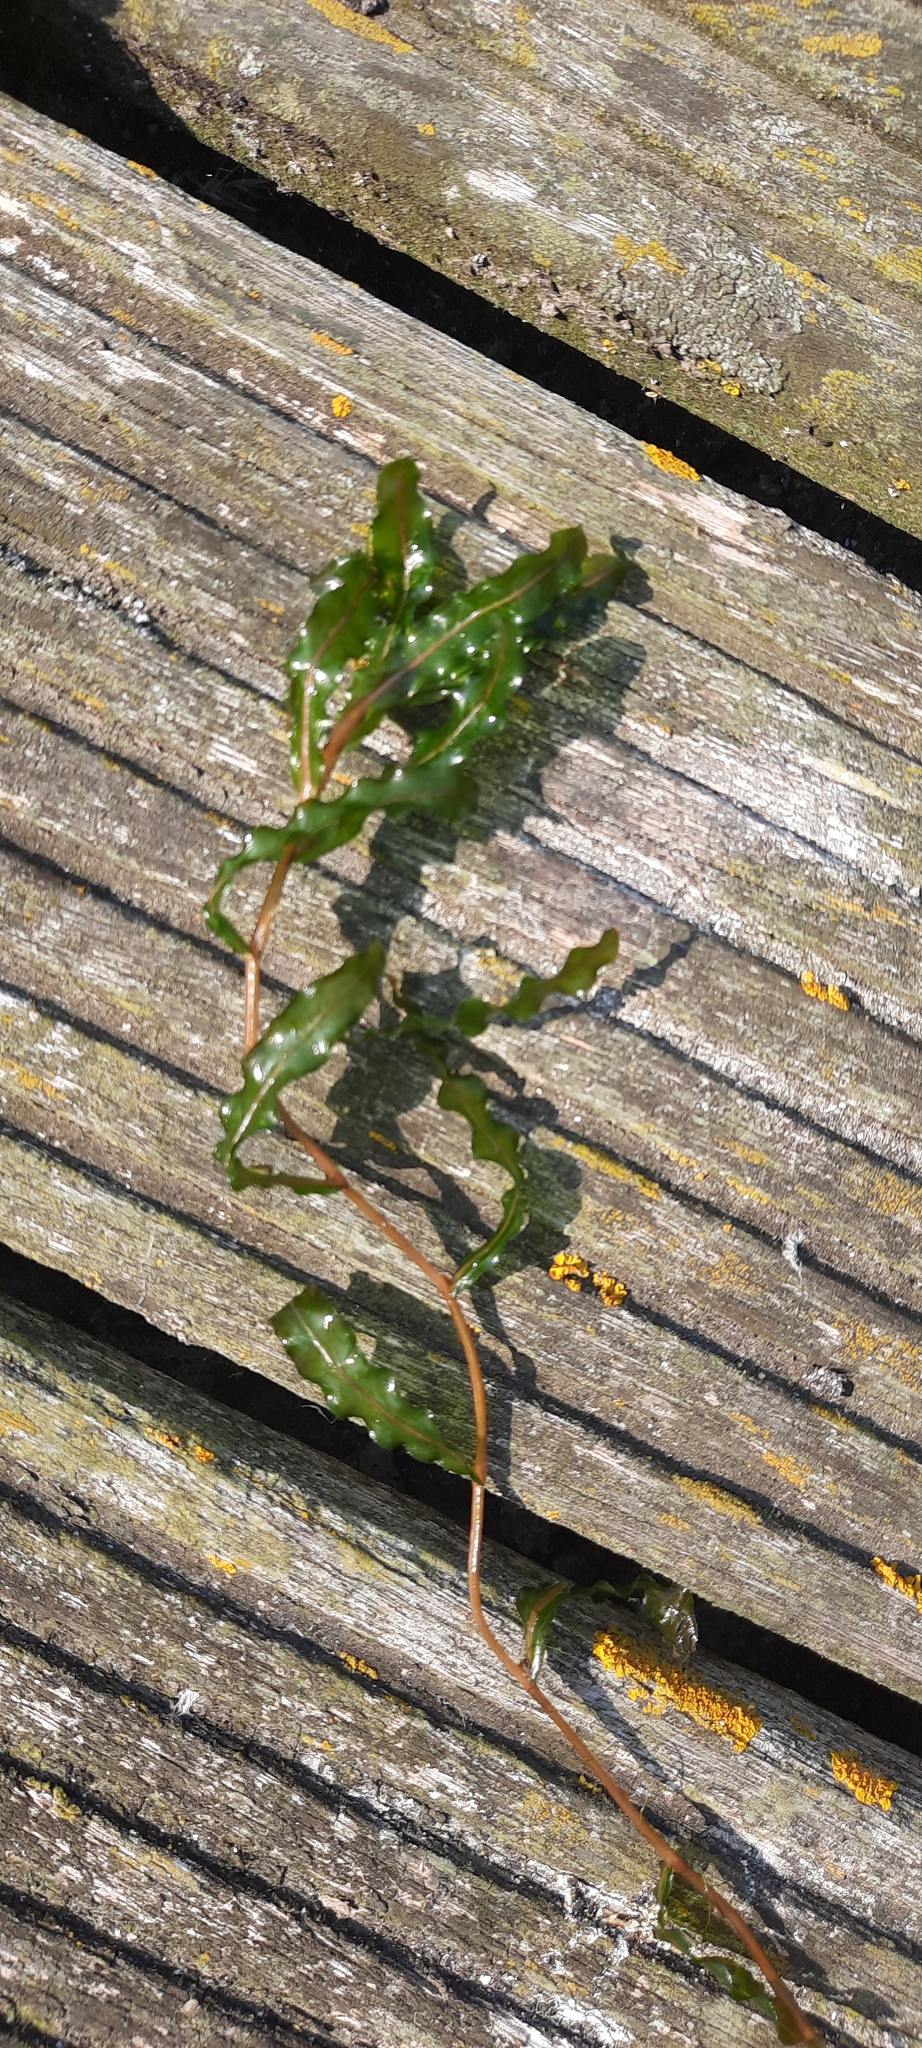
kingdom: Plantae
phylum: Tracheophyta
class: Liliopsida
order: Alismatales
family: Potamogetonaceae
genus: Potamogeton
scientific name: Potamogeton crispus
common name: Curled pondweed
